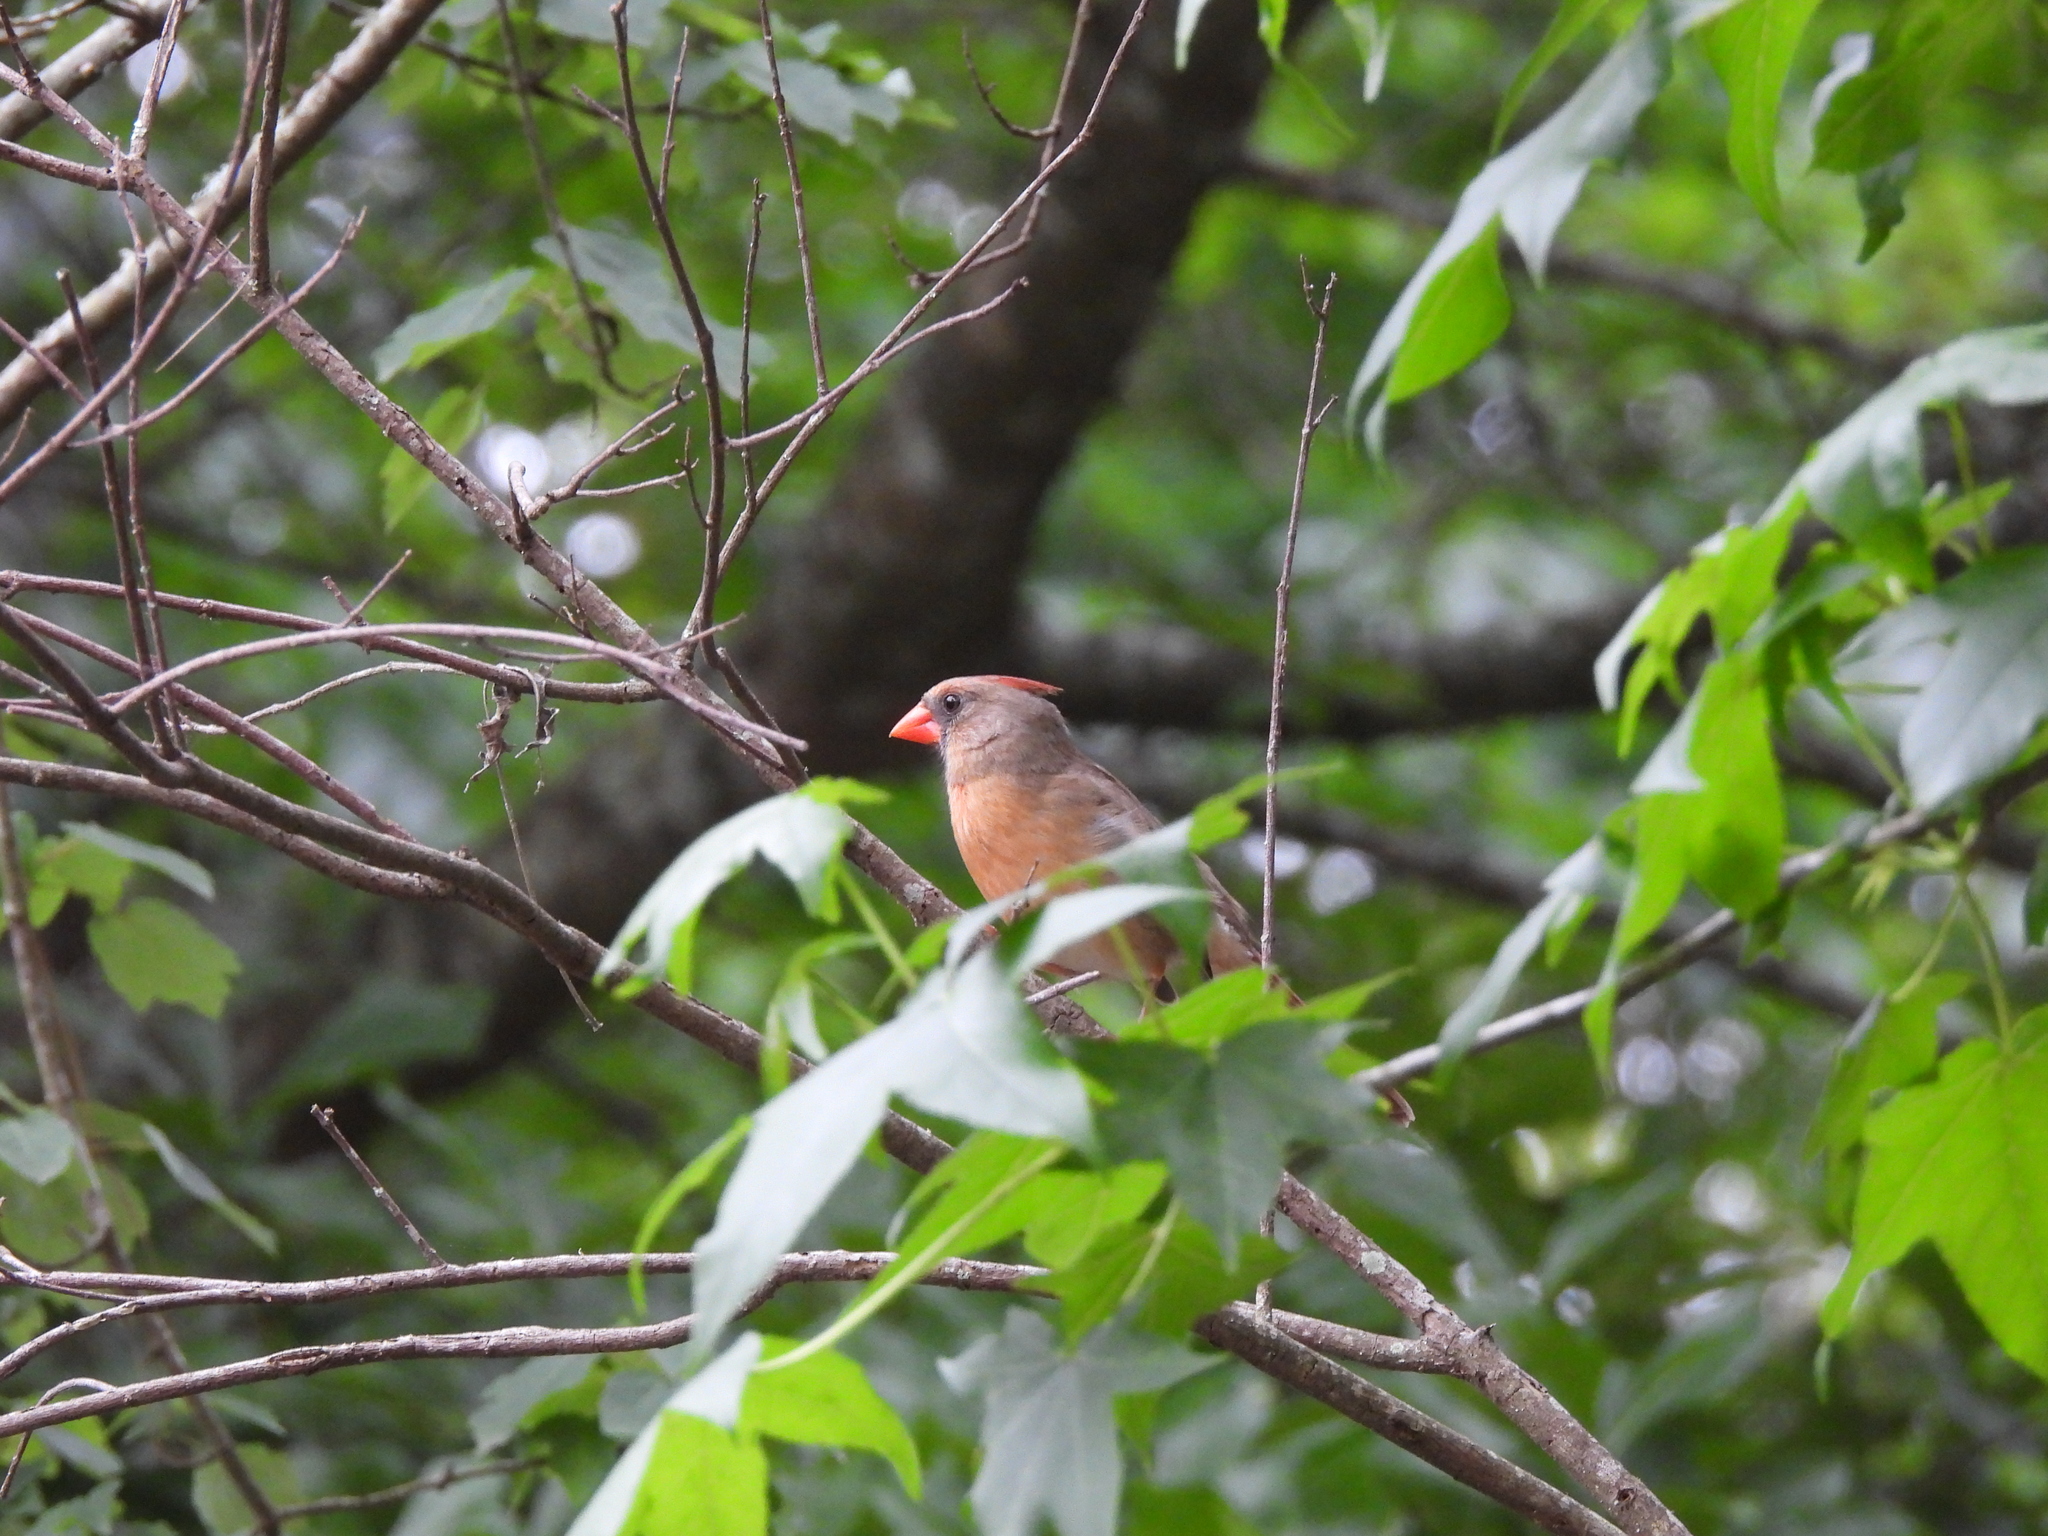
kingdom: Animalia
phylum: Chordata
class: Aves
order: Passeriformes
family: Cardinalidae
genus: Cardinalis
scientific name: Cardinalis cardinalis
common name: Northern cardinal
